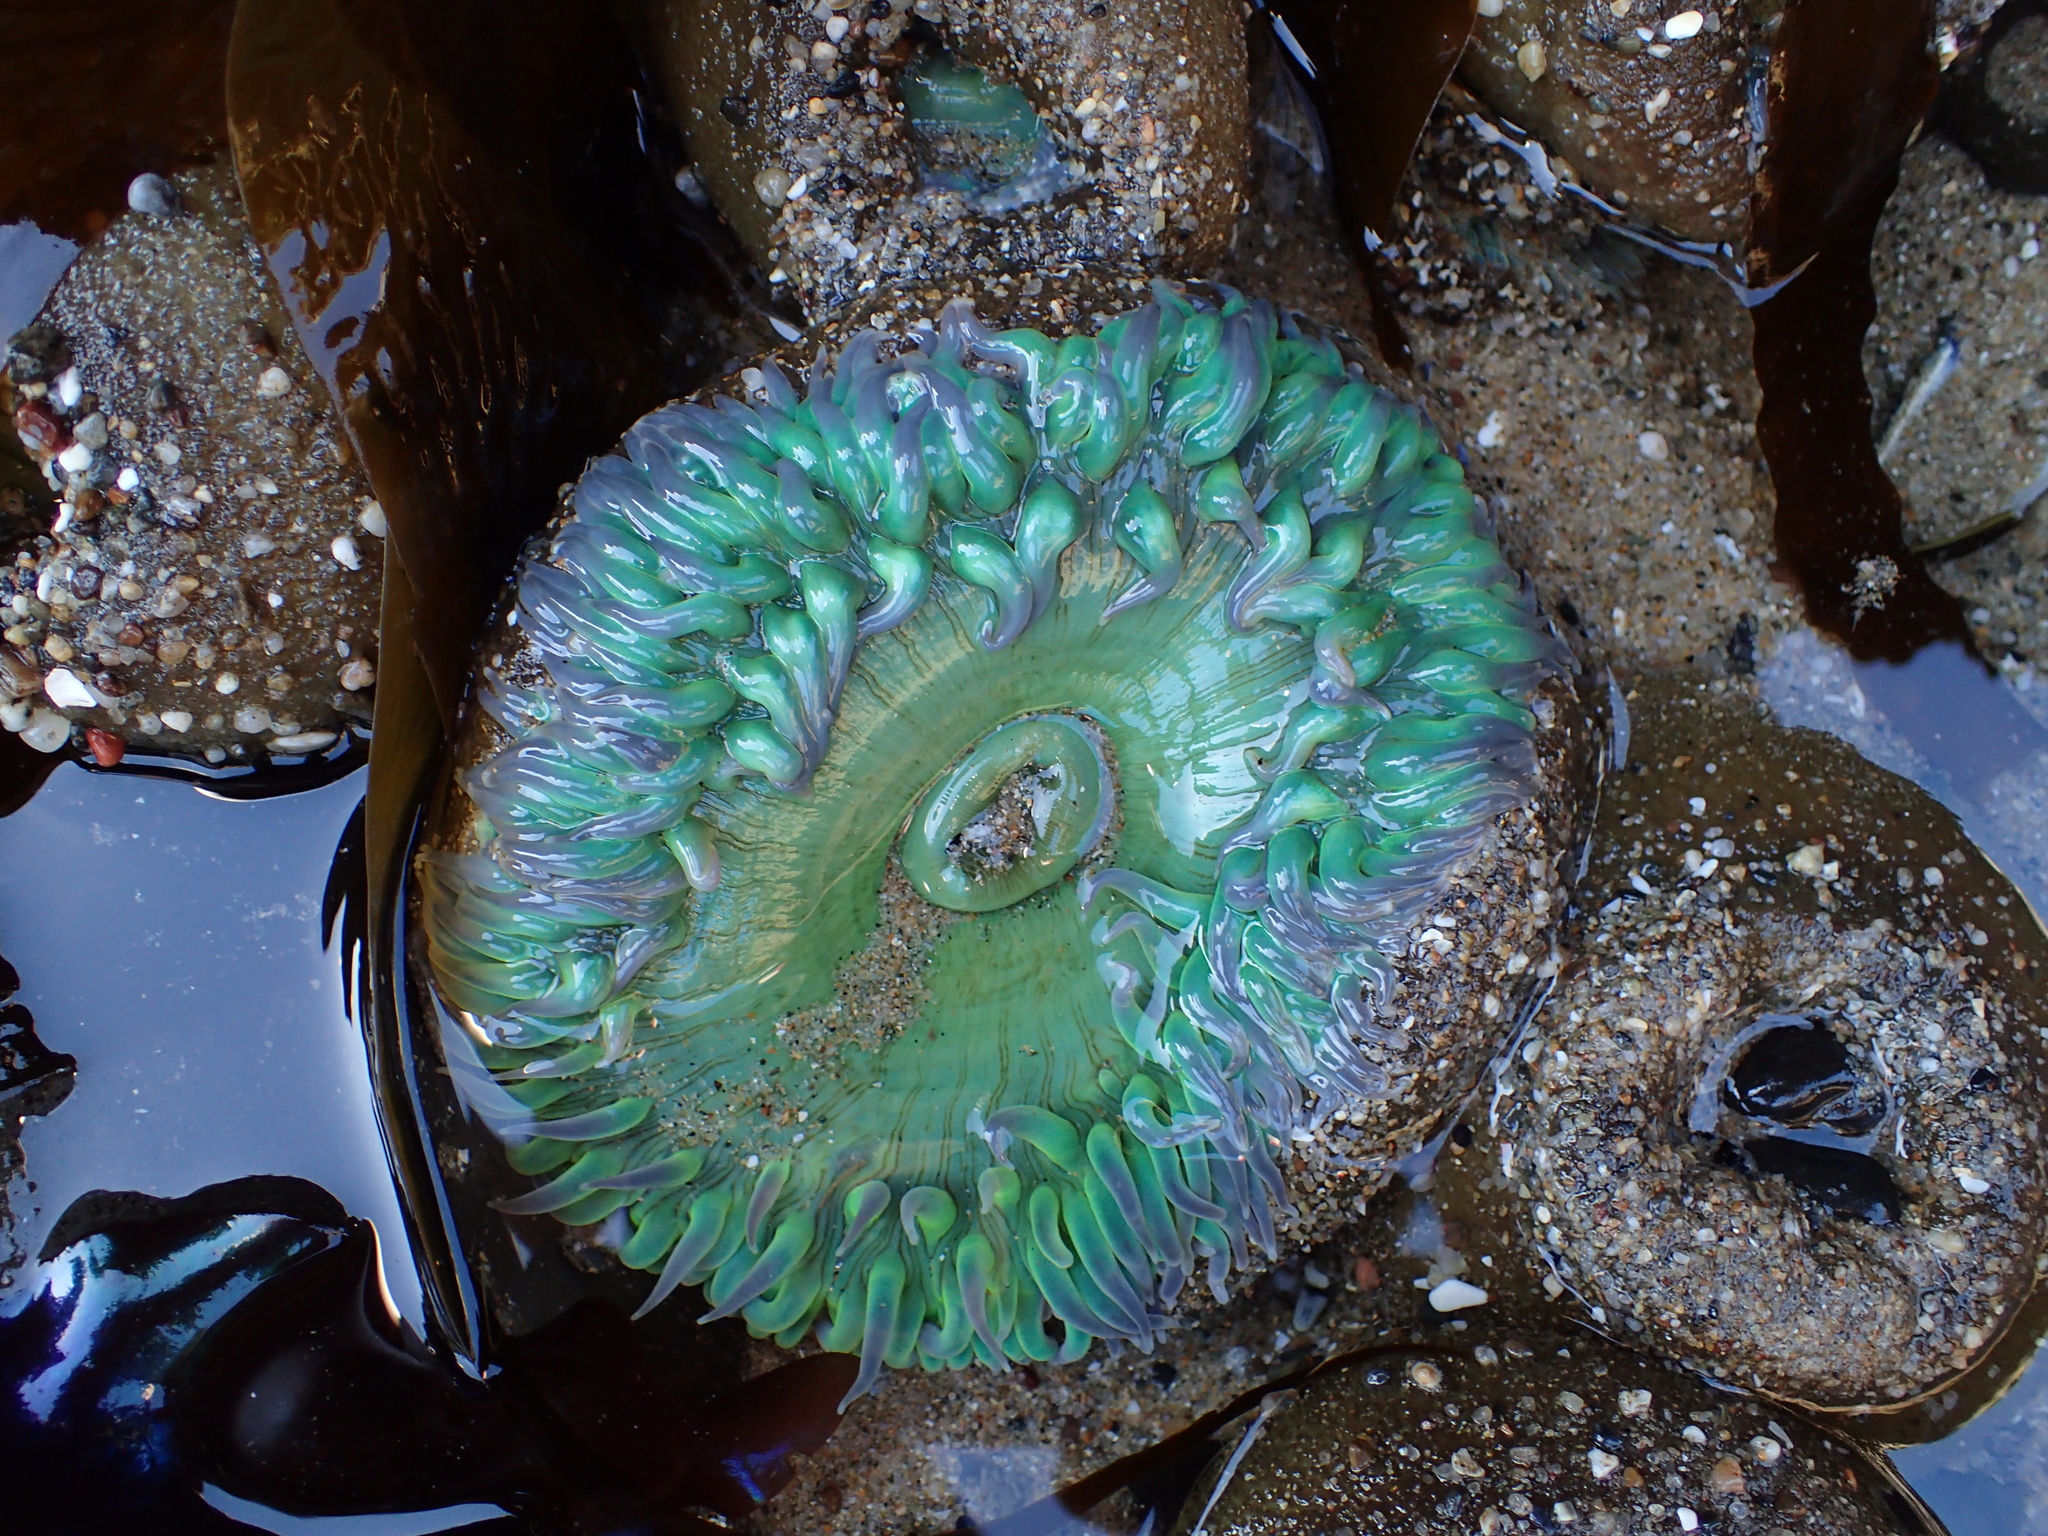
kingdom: Animalia
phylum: Cnidaria
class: Anthozoa
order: Actiniaria
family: Actiniidae
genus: Anthopleura
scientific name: Anthopleura xanthogrammica
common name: Giant green anemone
